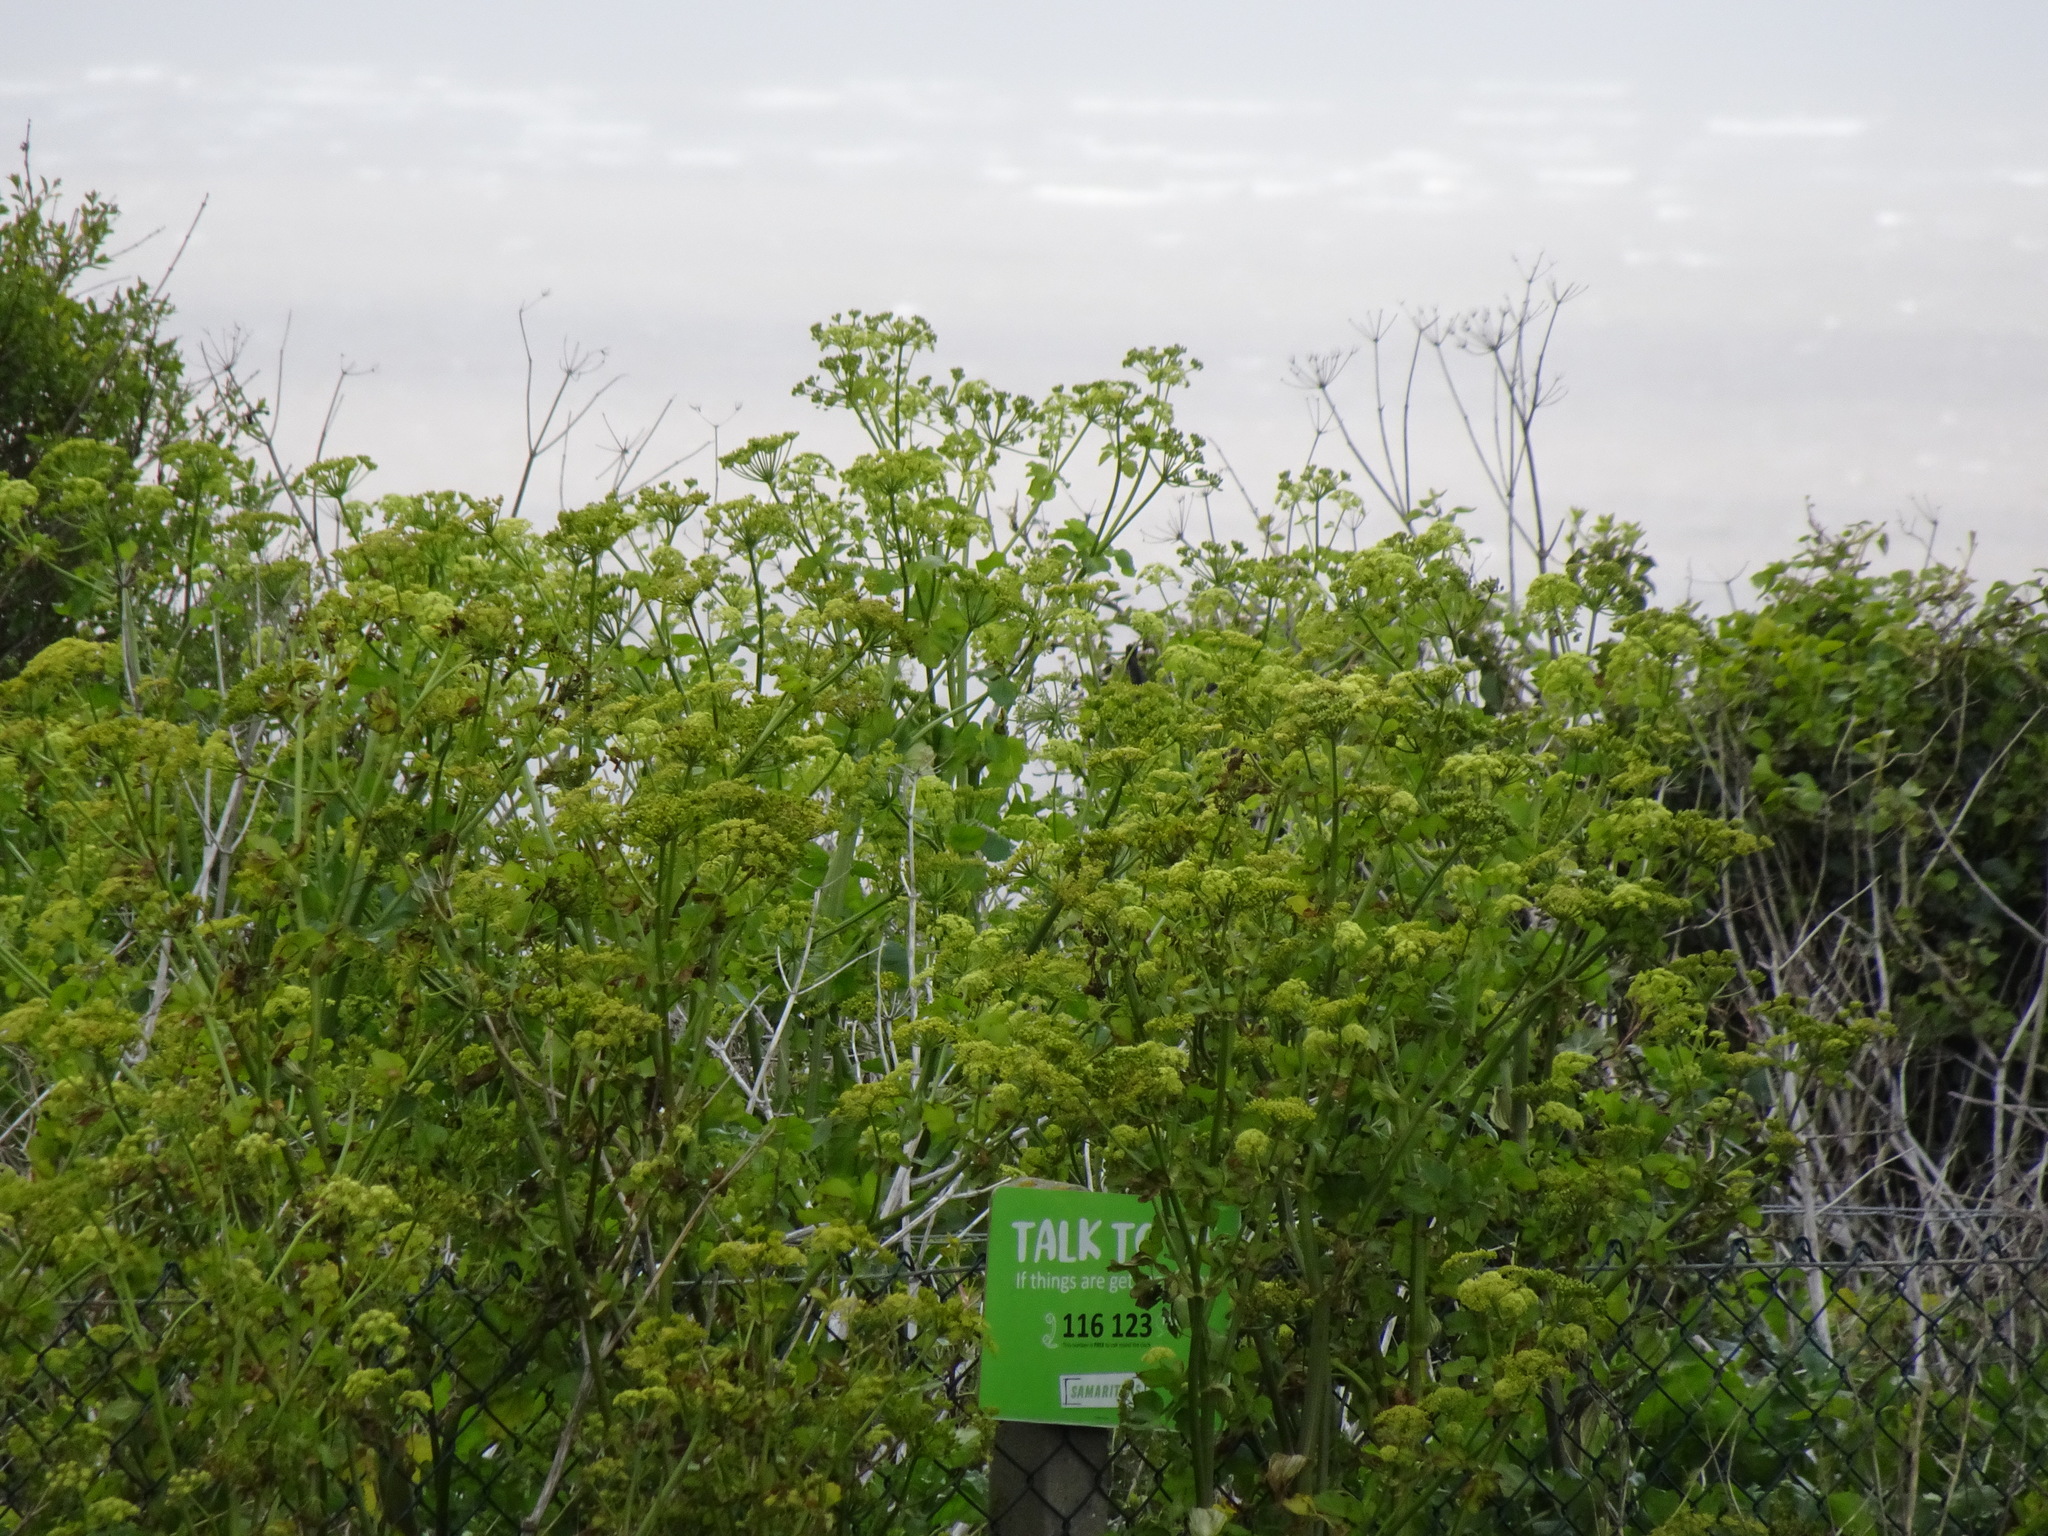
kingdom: Plantae
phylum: Tracheophyta
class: Magnoliopsida
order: Apiales
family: Apiaceae
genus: Smyrnium
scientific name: Smyrnium olusatrum
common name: Alexanders
